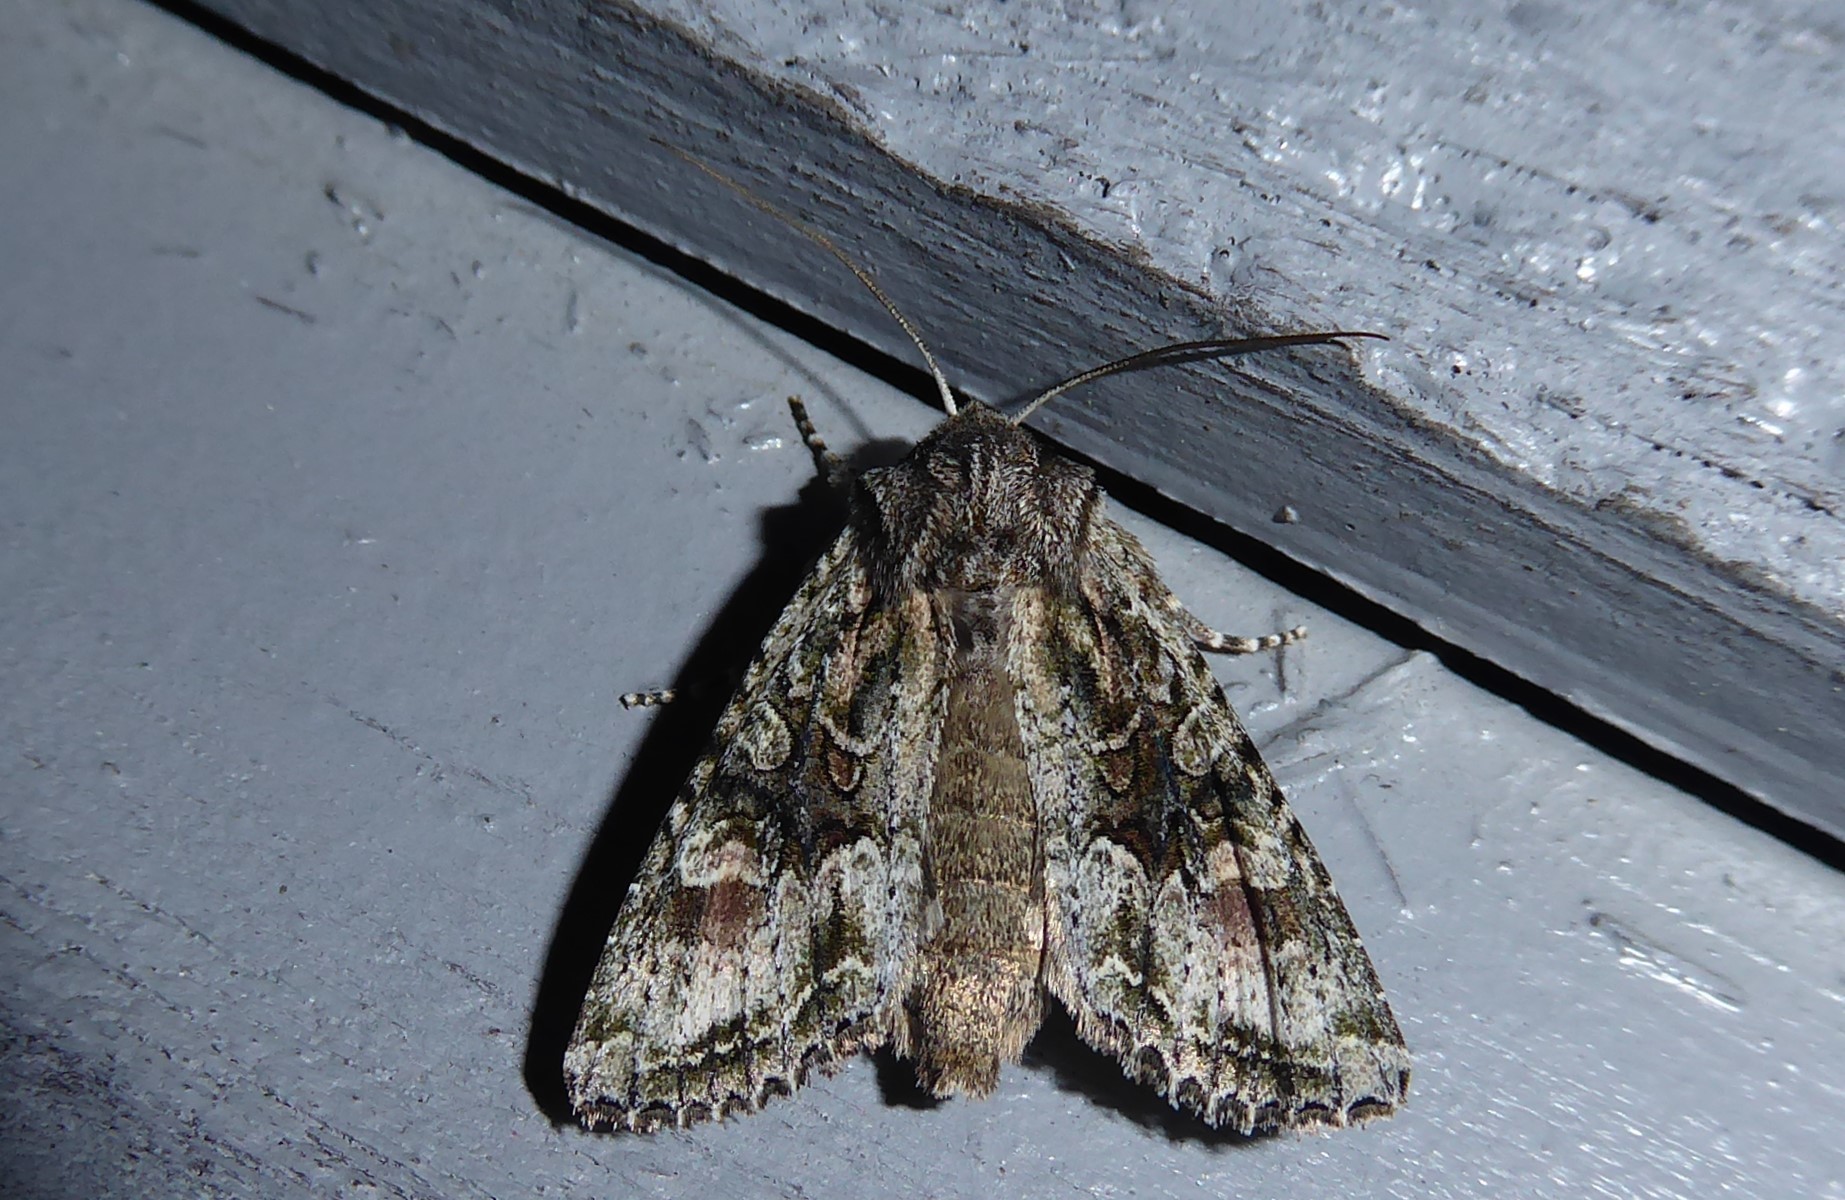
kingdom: Animalia
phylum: Arthropoda
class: Insecta
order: Lepidoptera
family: Noctuidae
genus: Ichneutica
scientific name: Ichneutica mutans
